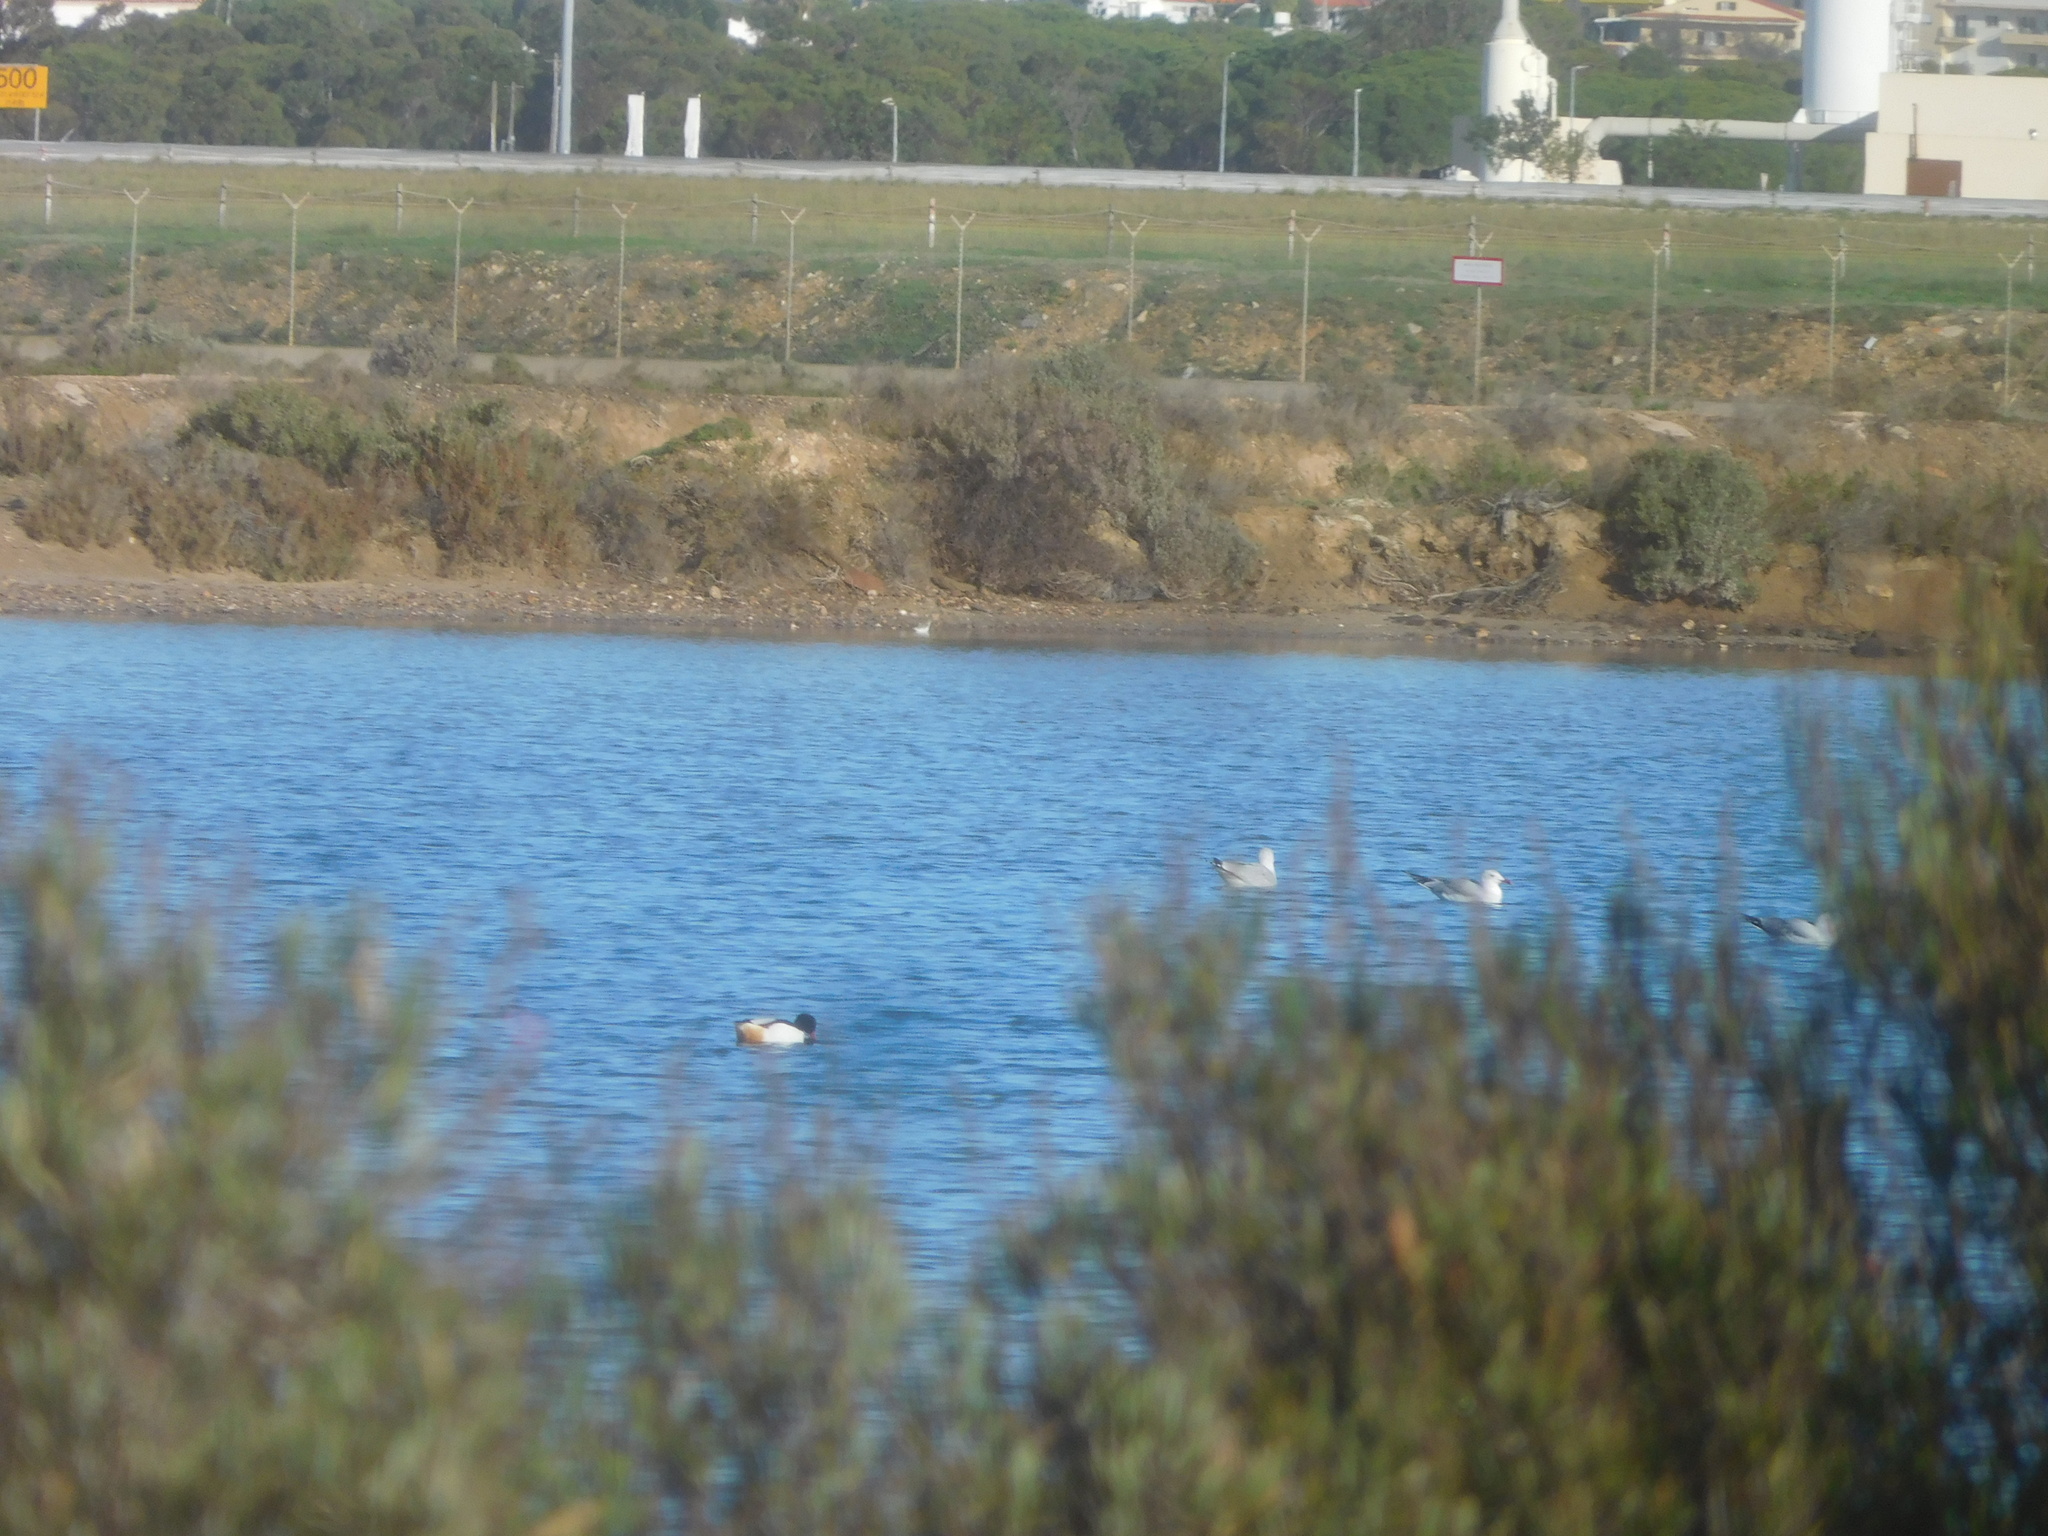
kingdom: Animalia
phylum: Chordata
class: Aves
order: Anseriformes
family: Anatidae
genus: Tadorna
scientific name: Tadorna tadorna
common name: Common shelduck
